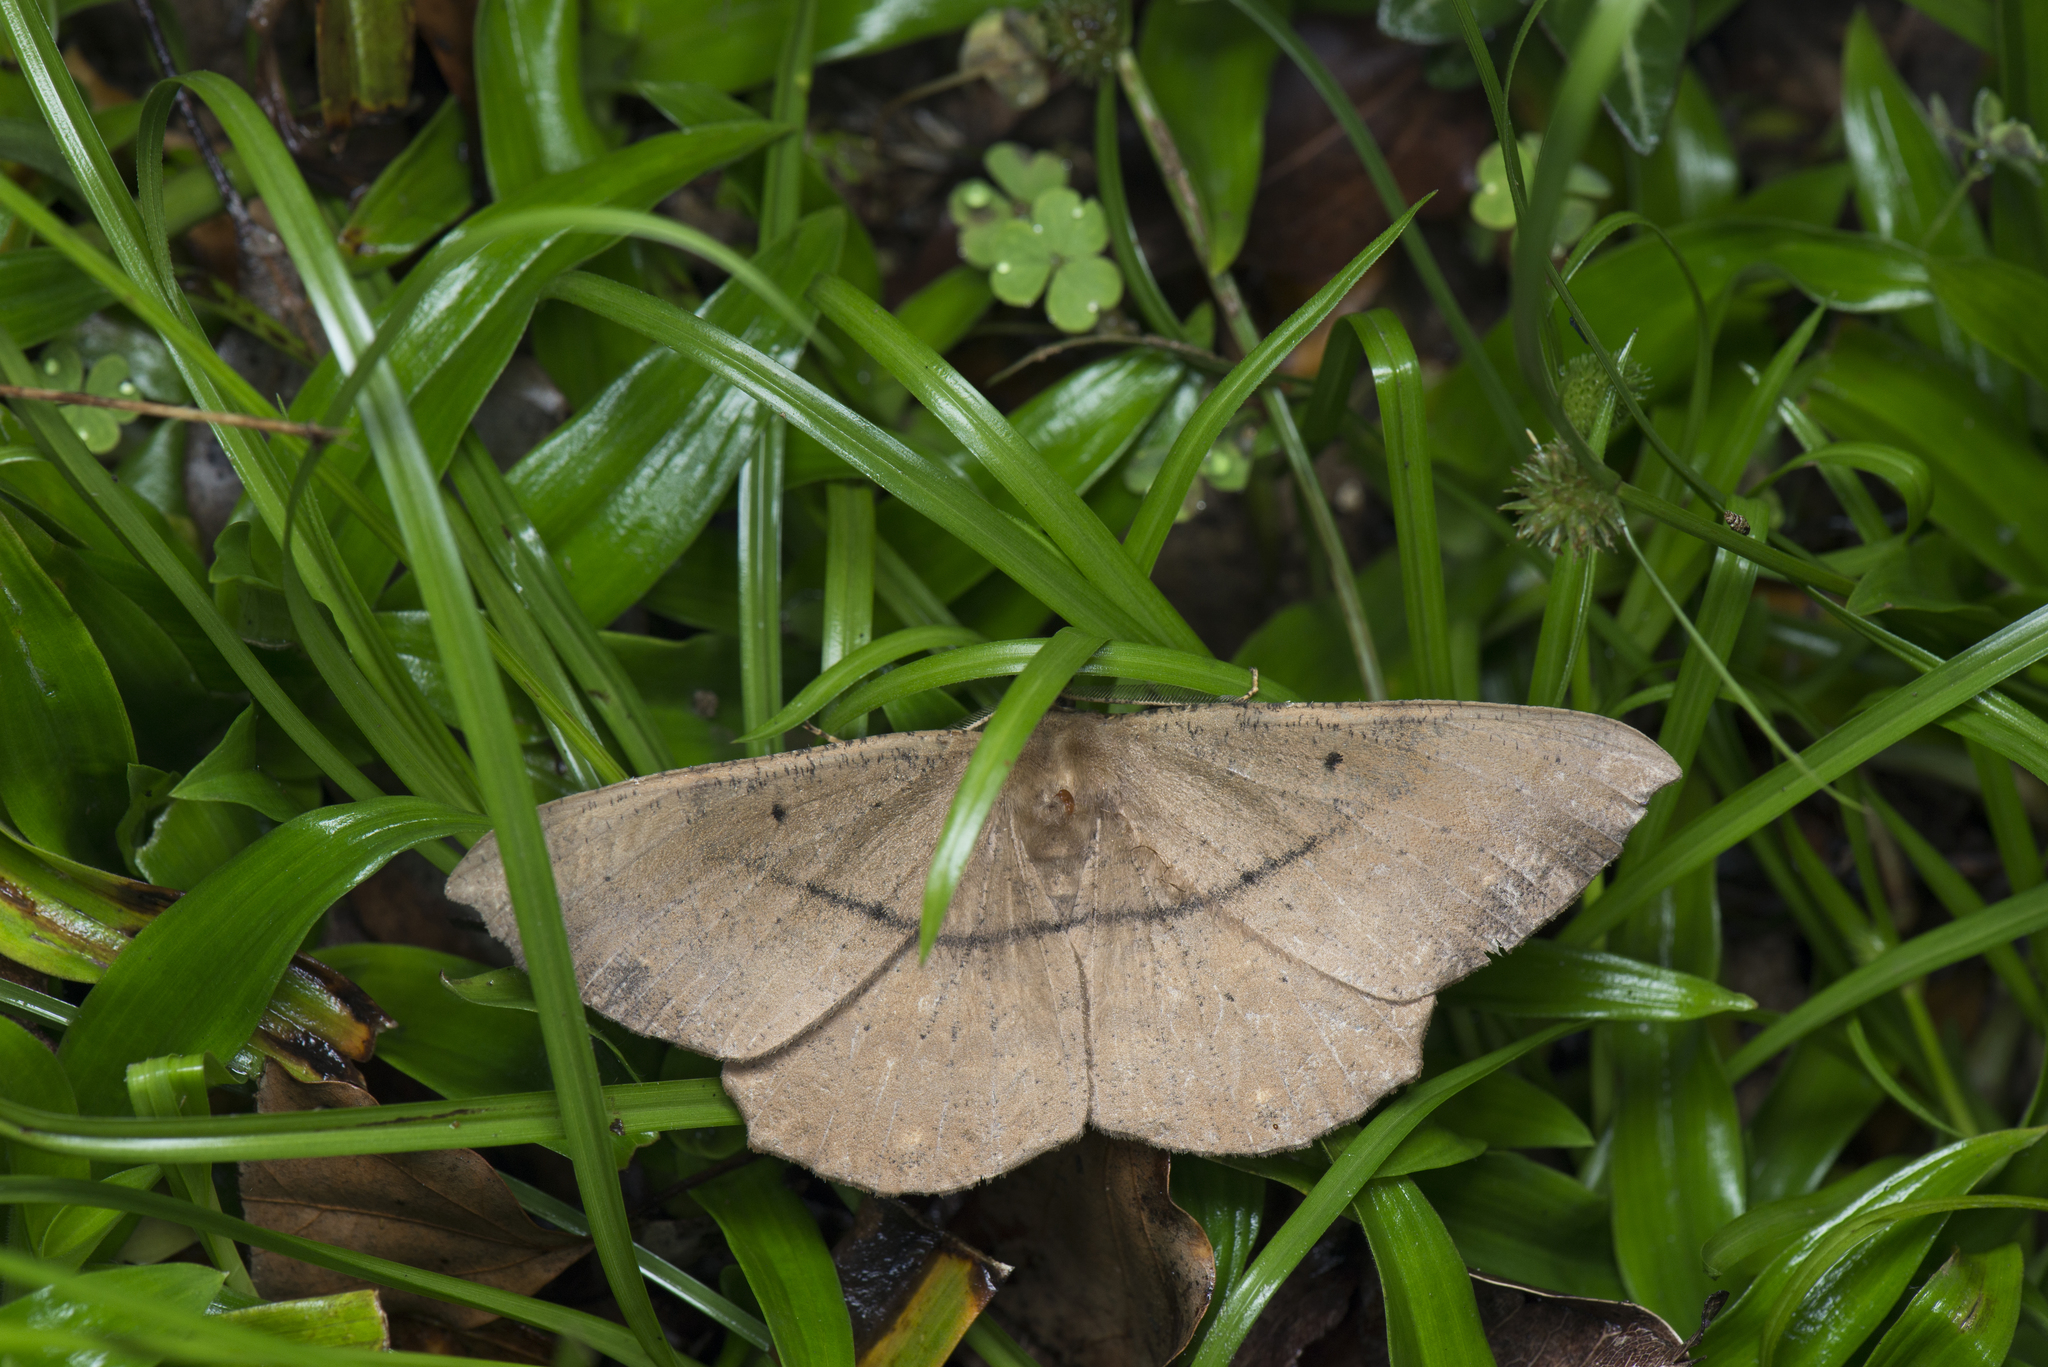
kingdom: Animalia
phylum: Arthropoda
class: Insecta
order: Lepidoptera
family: Geometridae
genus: Chorodna
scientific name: Chorodna ochreimacula
